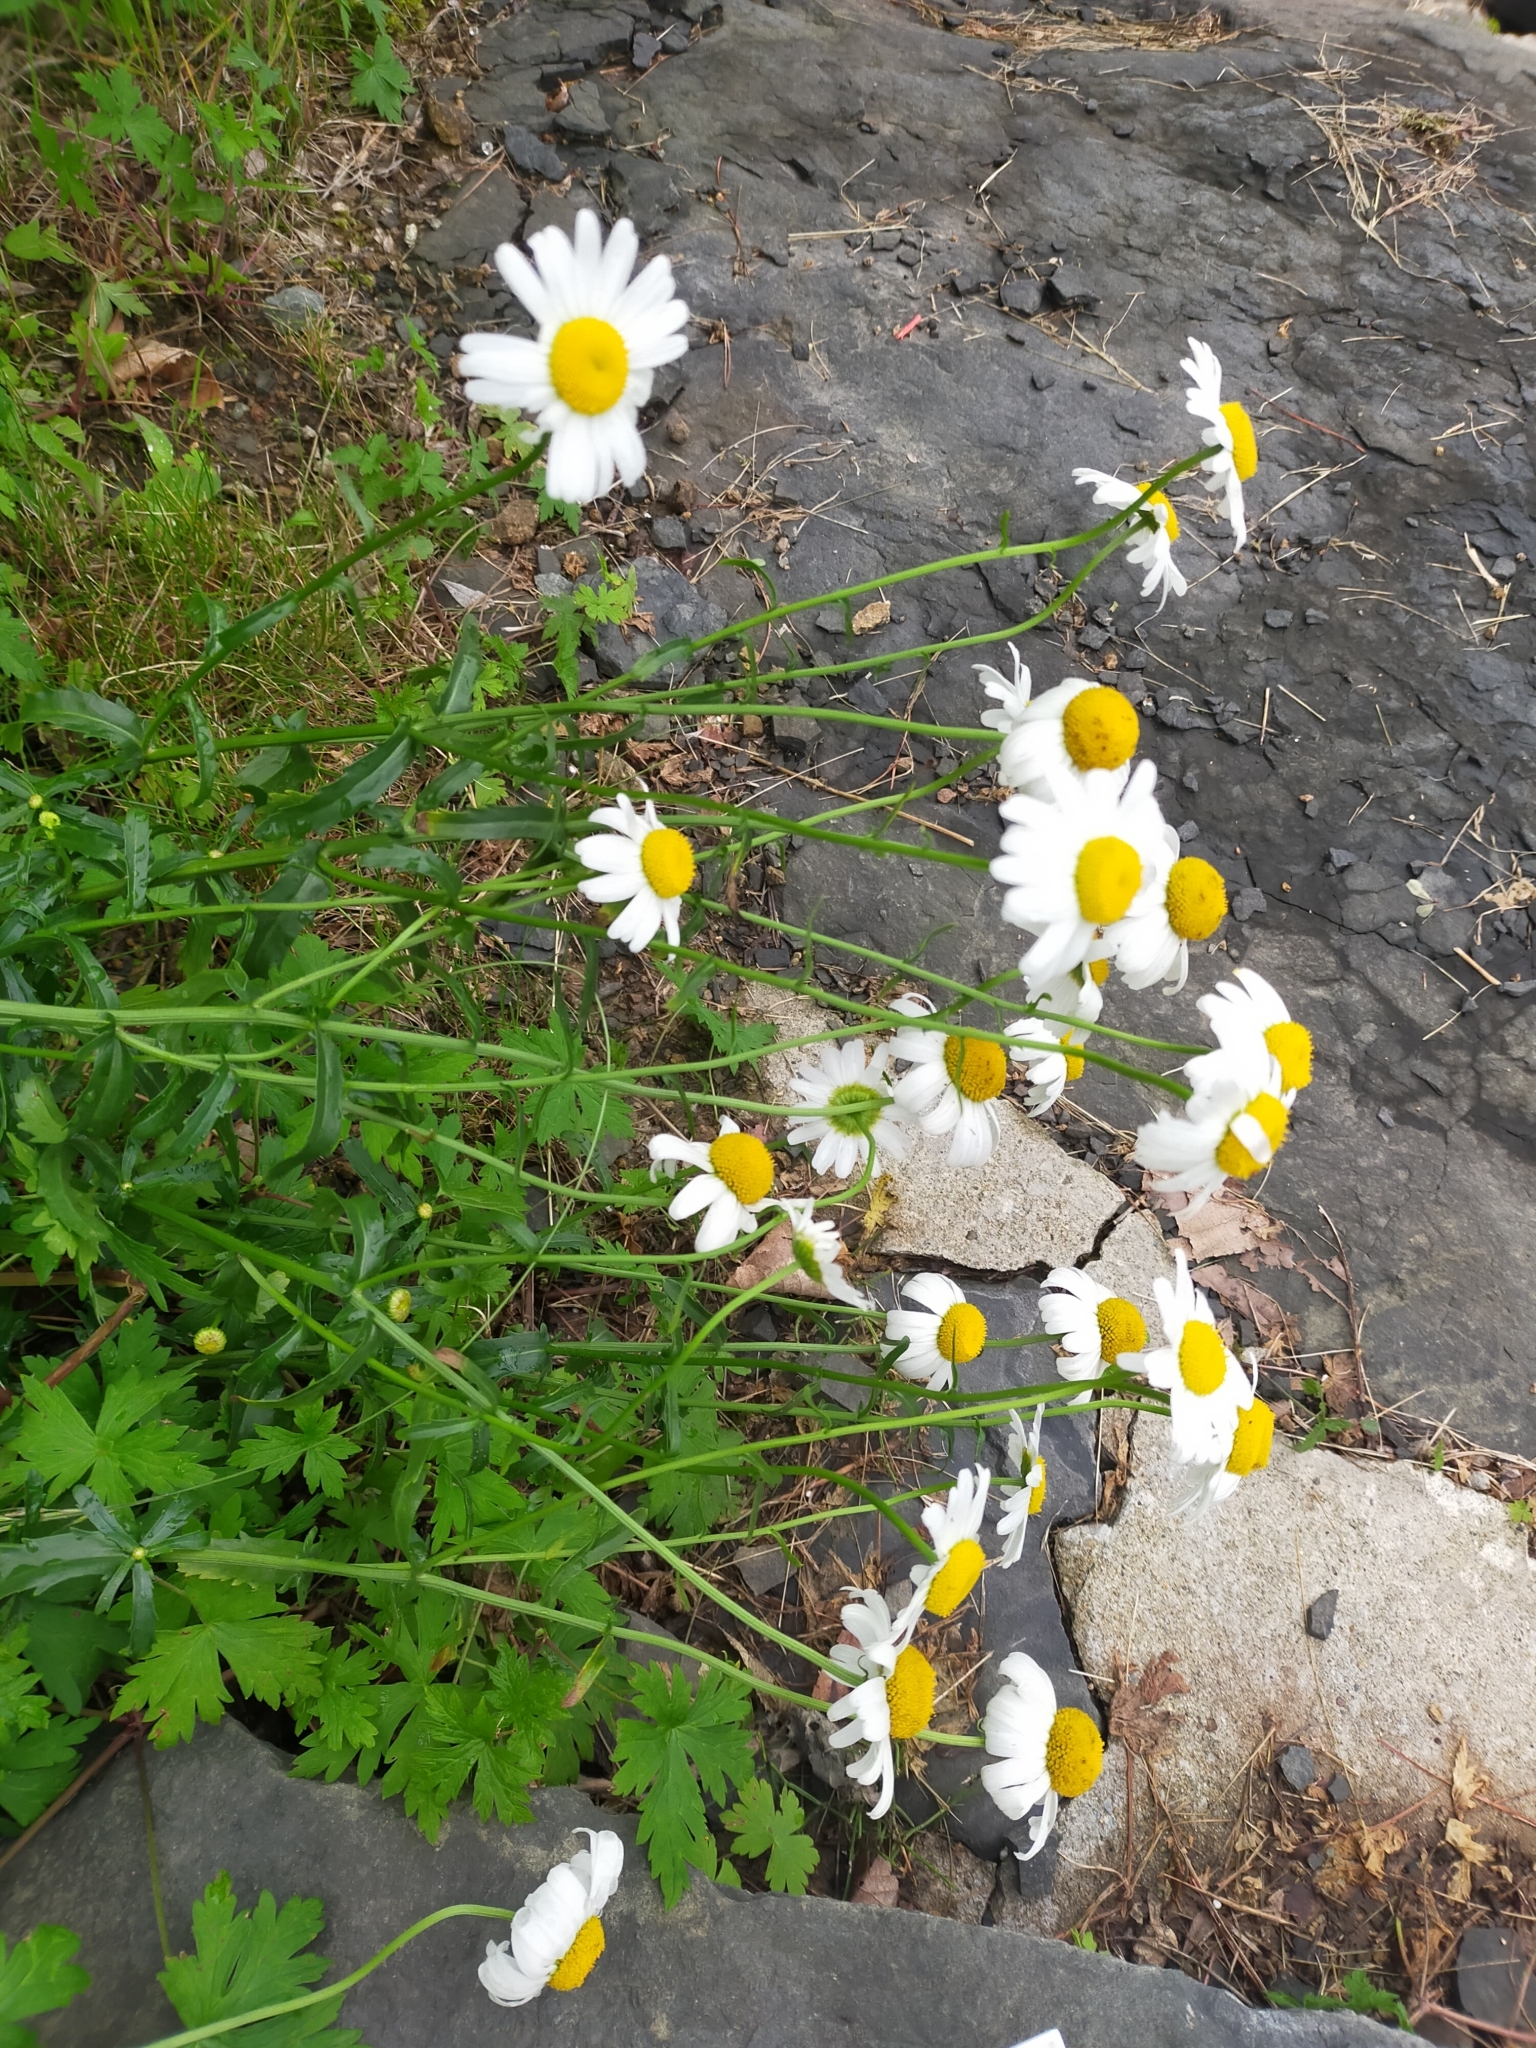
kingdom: Plantae
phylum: Tracheophyta
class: Magnoliopsida
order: Asterales
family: Asteraceae
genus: Leucanthemum
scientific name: Leucanthemum vulgare
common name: Oxeye daisy
